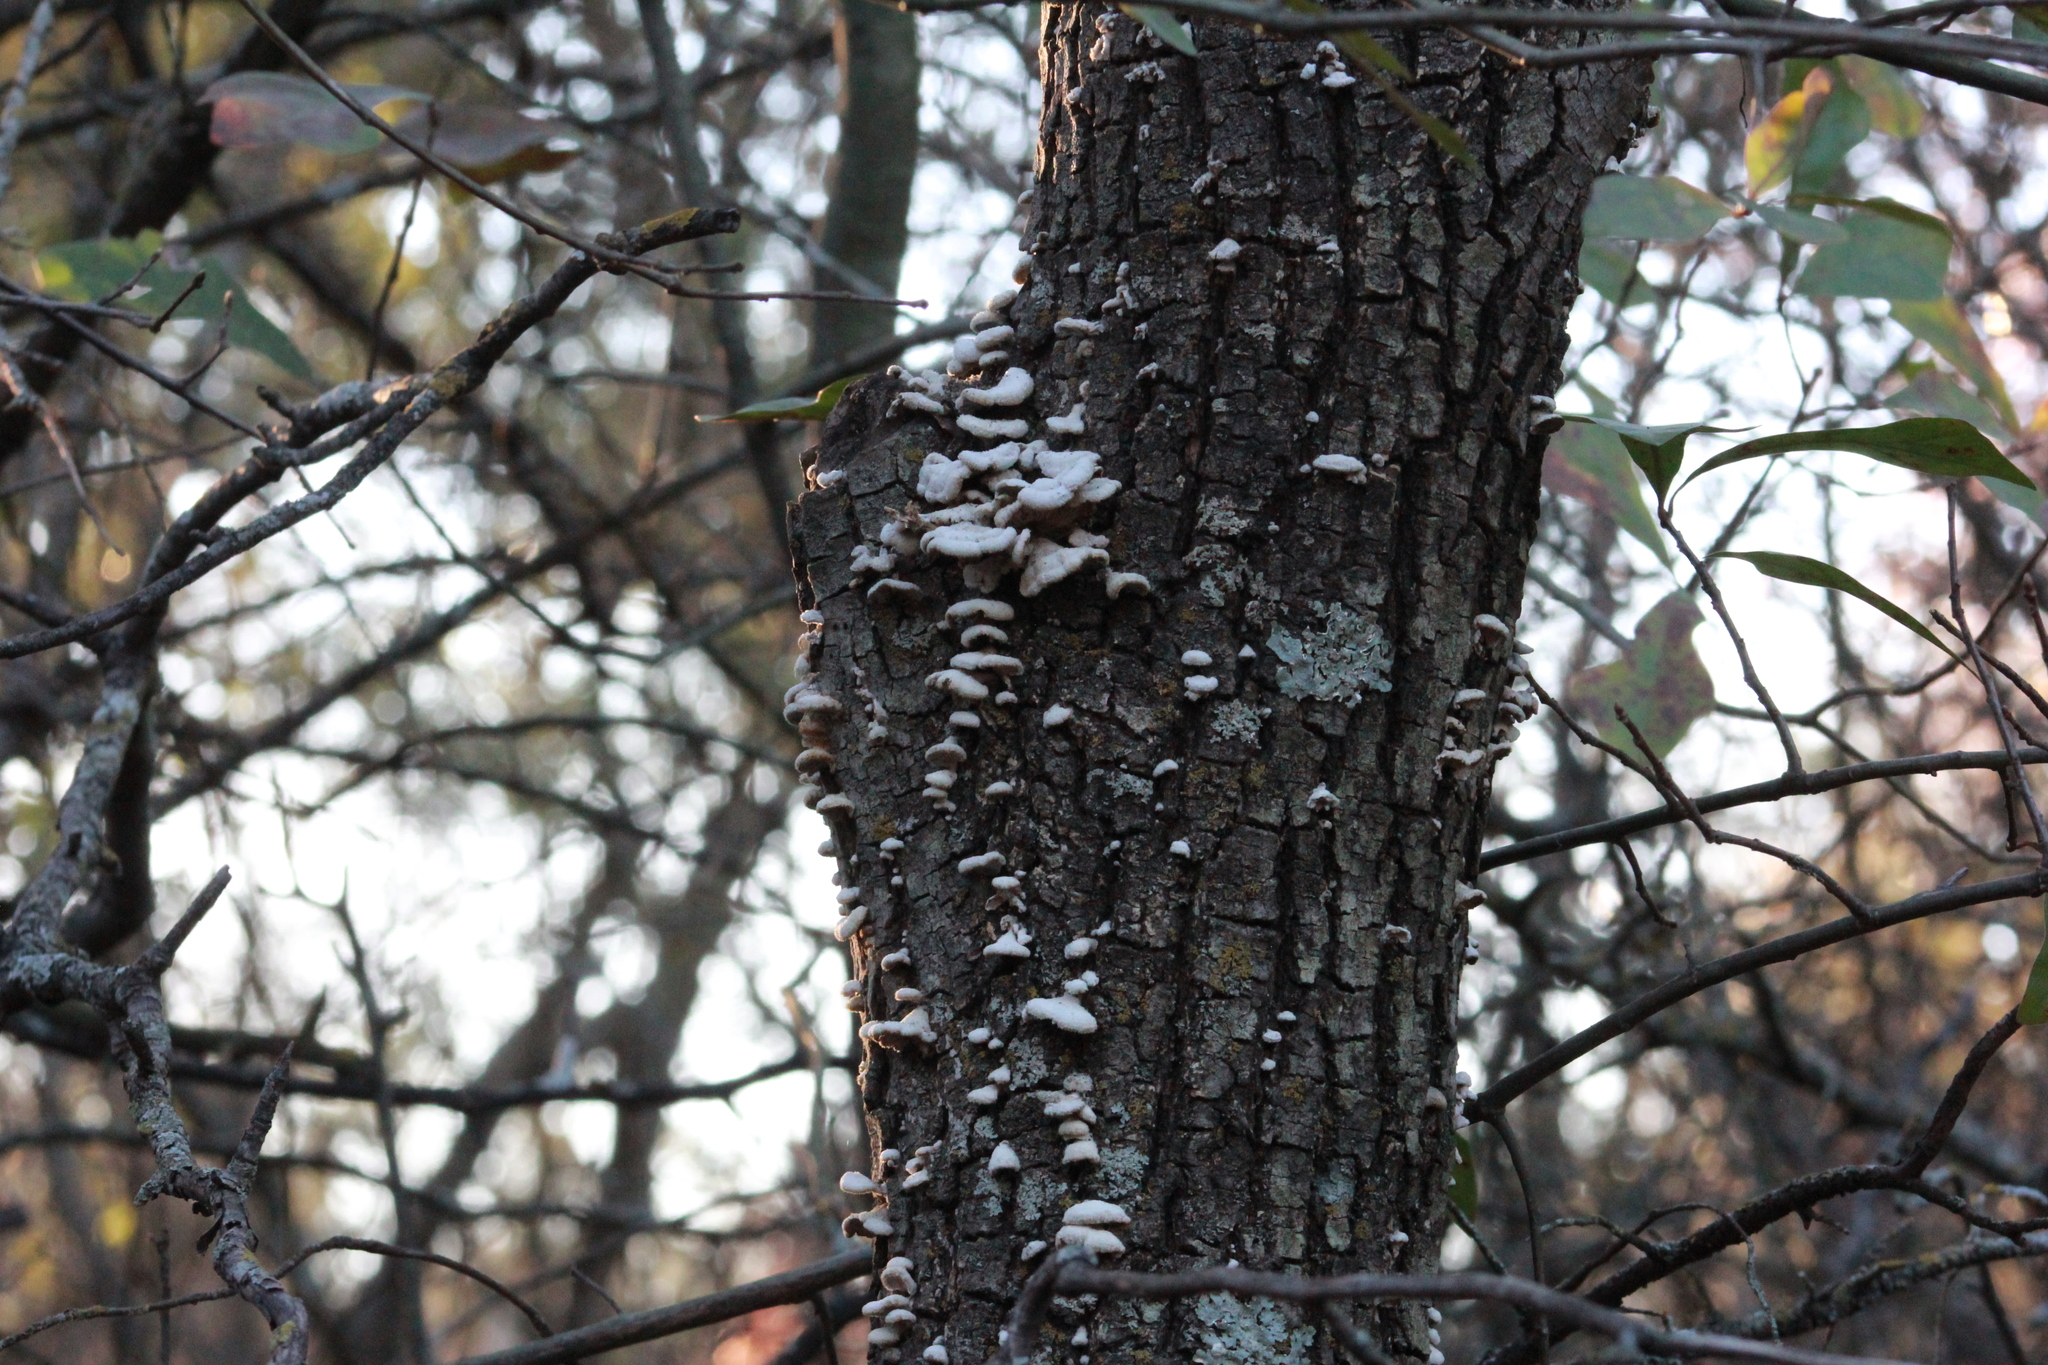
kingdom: Fungi
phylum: Basidiomycota
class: Agaricomycetes
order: Agaricales
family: Schizophyllaceae
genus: Schizophyllum
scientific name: Schizophyllum commune
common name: Common porecrust
